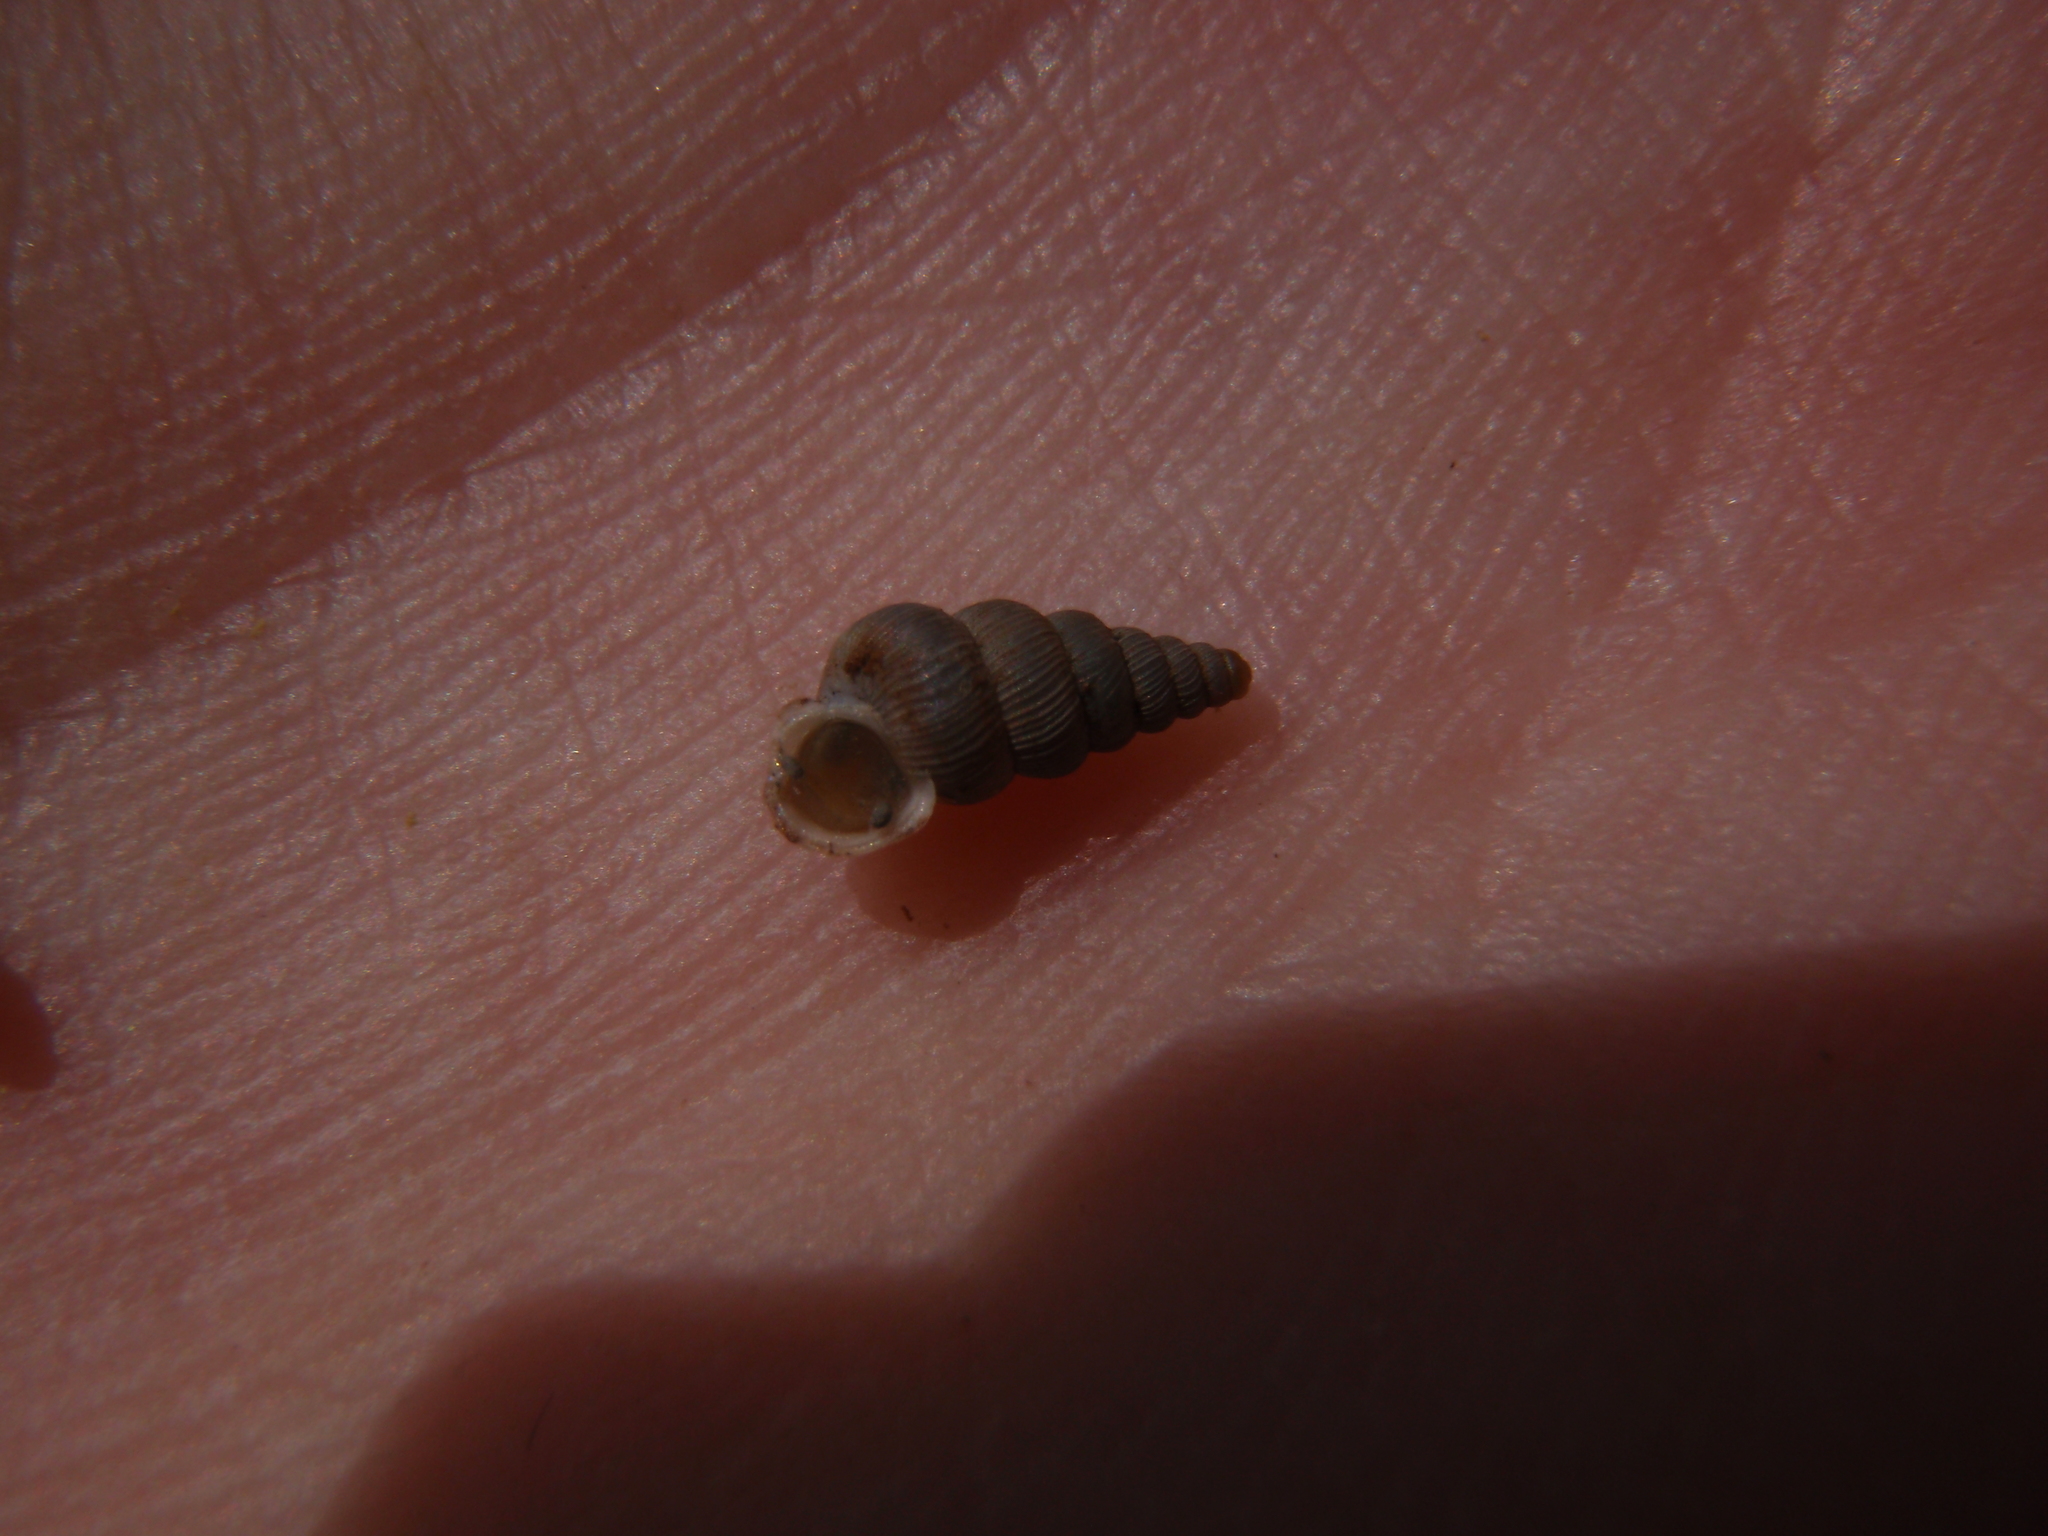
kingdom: Animalia
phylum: Mollusca
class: Gastropoda
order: Architaenioglossa
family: Cochlostomatidae
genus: Cochlostoma
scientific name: Cochlostoma patulum
